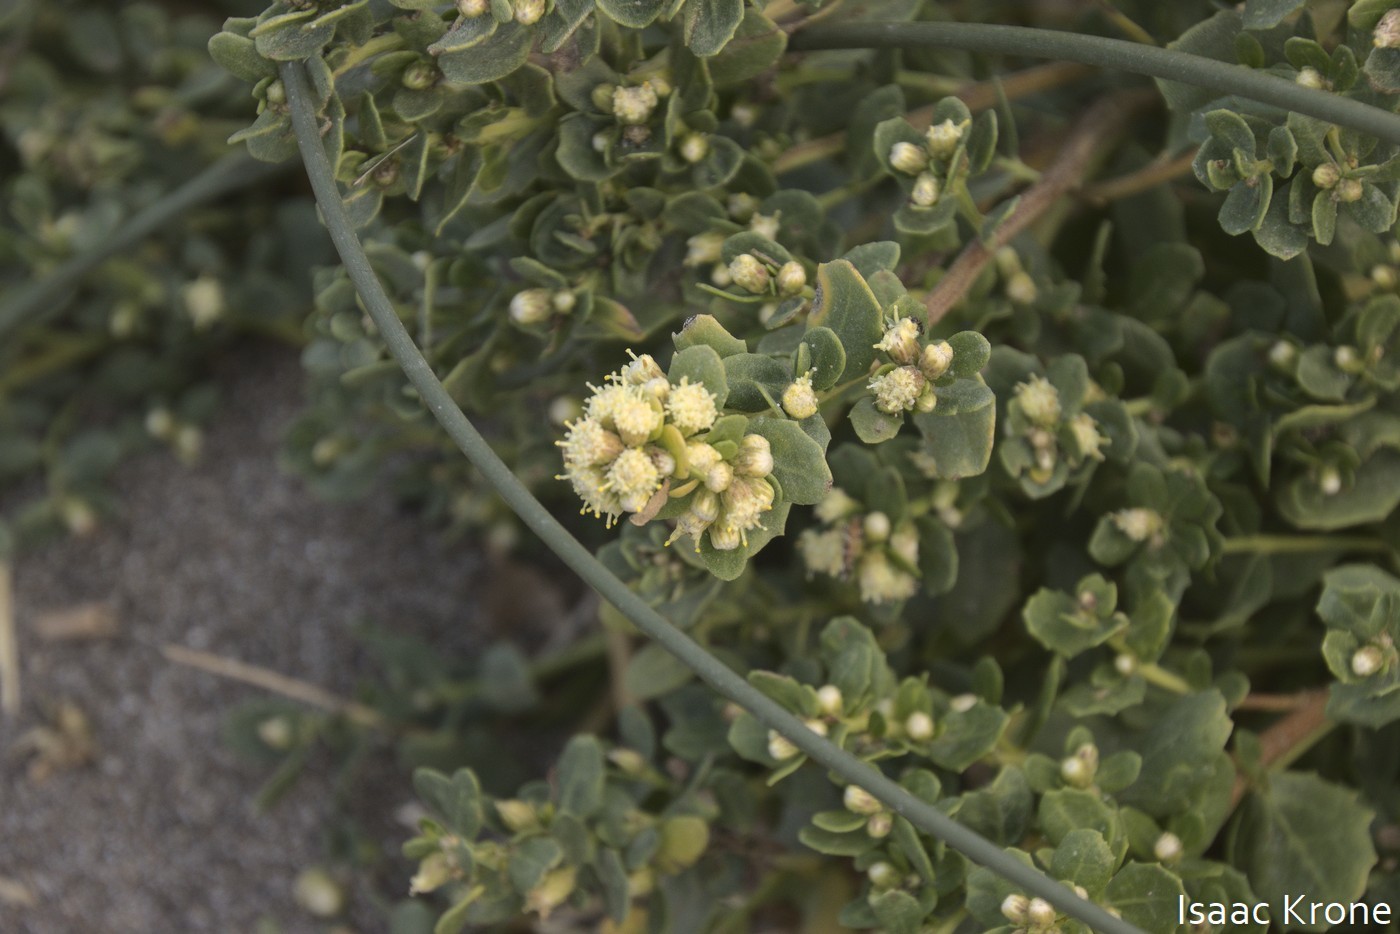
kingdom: Plantae
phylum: Tracheophyta
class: Magnoliopsida
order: Asterales
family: Asteraceae
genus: Baccharis
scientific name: Baccharis pilularis
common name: Coyotebrush
